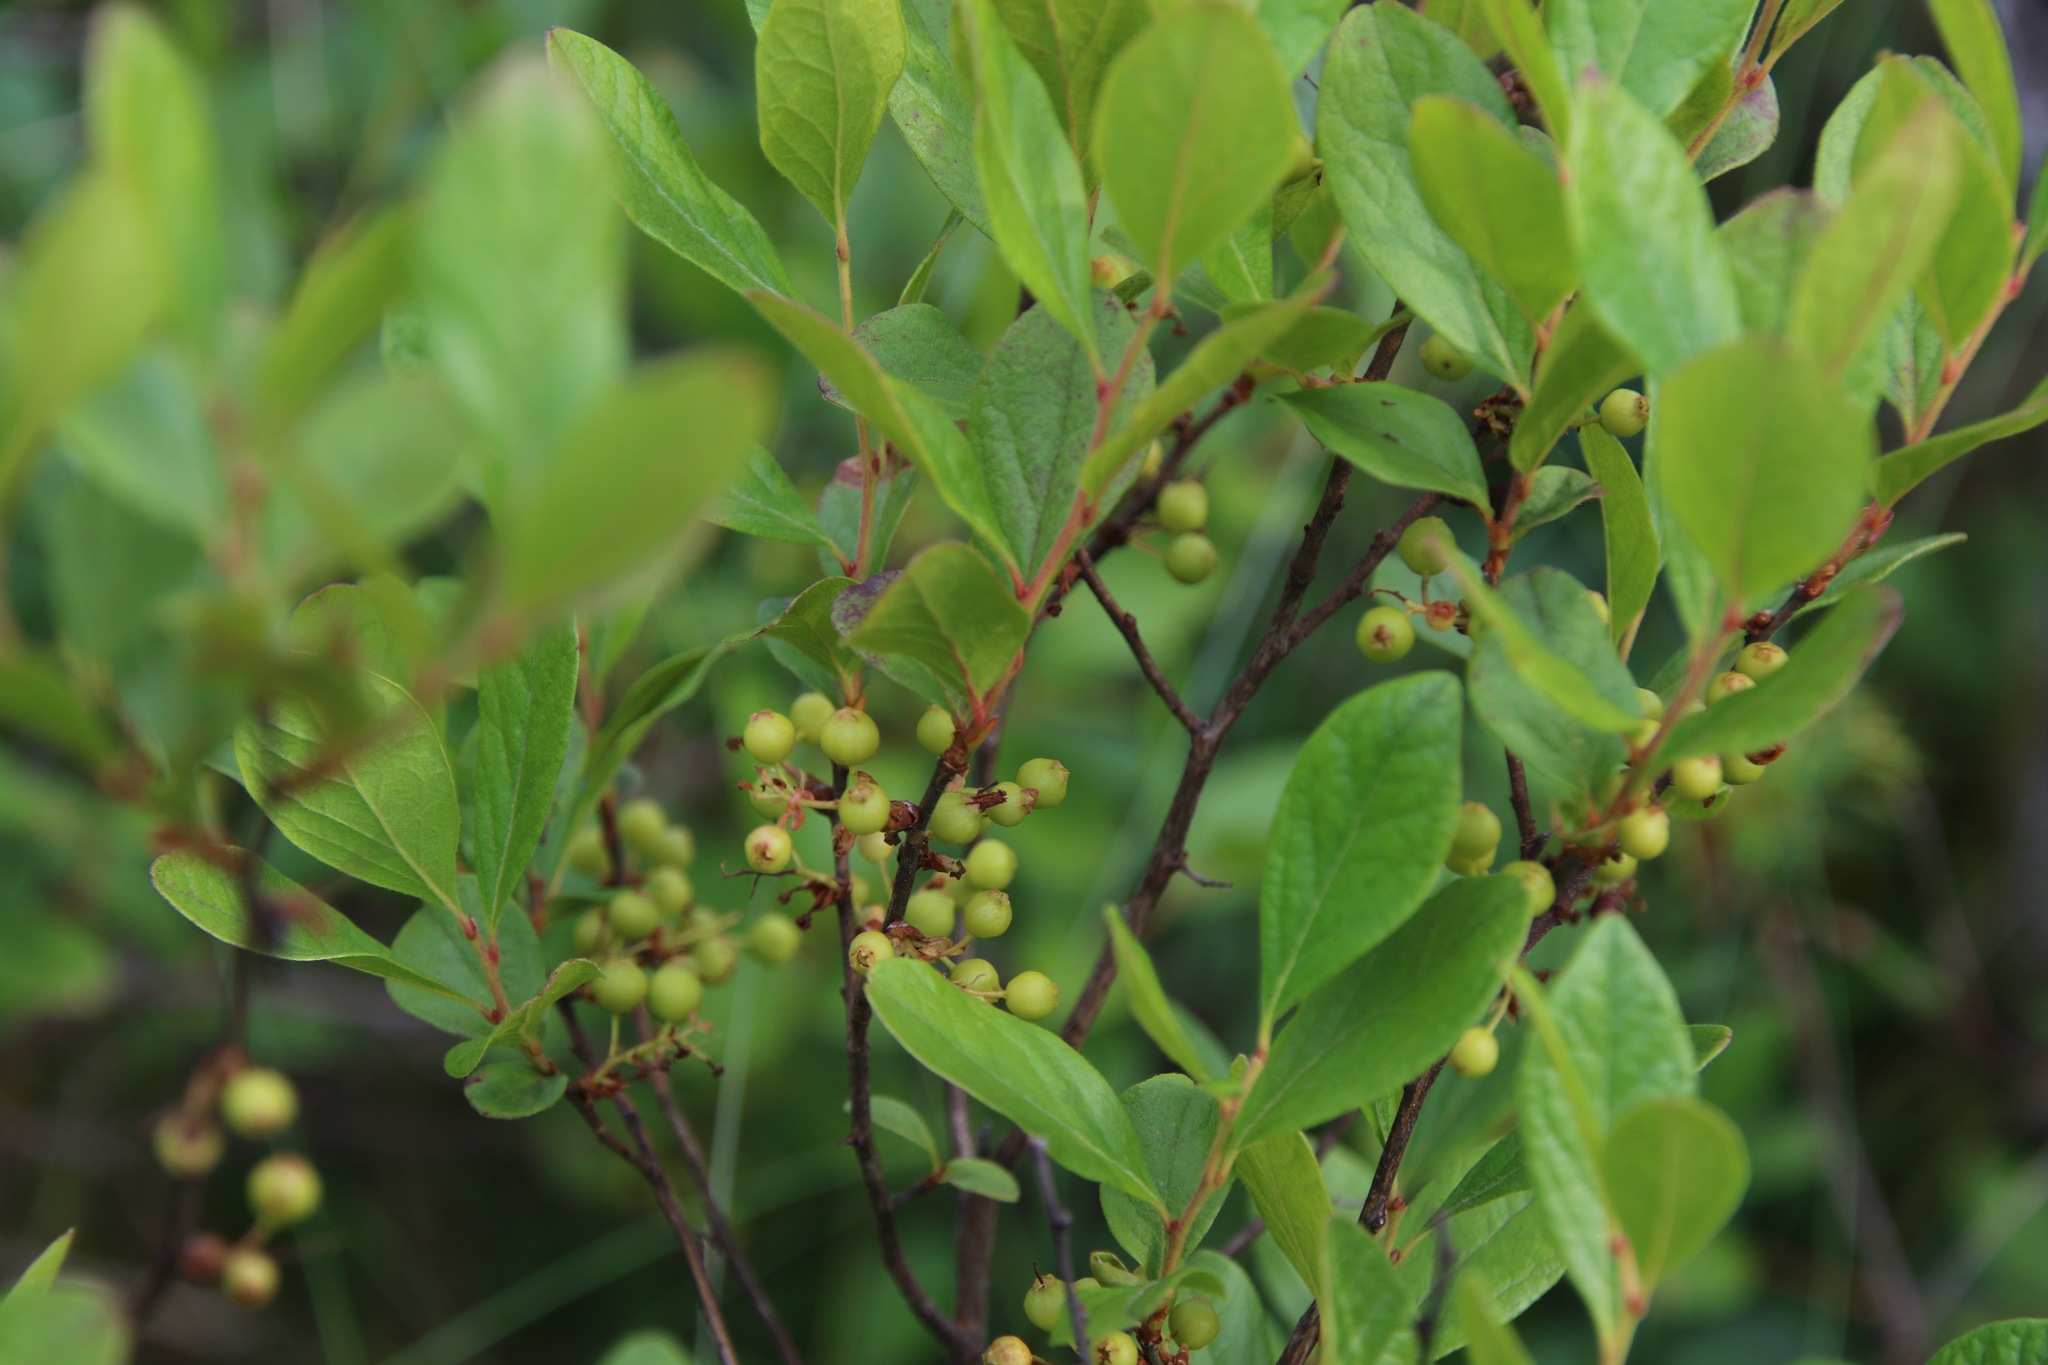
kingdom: Plantae
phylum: Tracheophyta
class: Magnoliopsida
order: Ericales
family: Ericaceae
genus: Gaylussacia
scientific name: Gaylussacia baccata
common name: Black huckleberry
